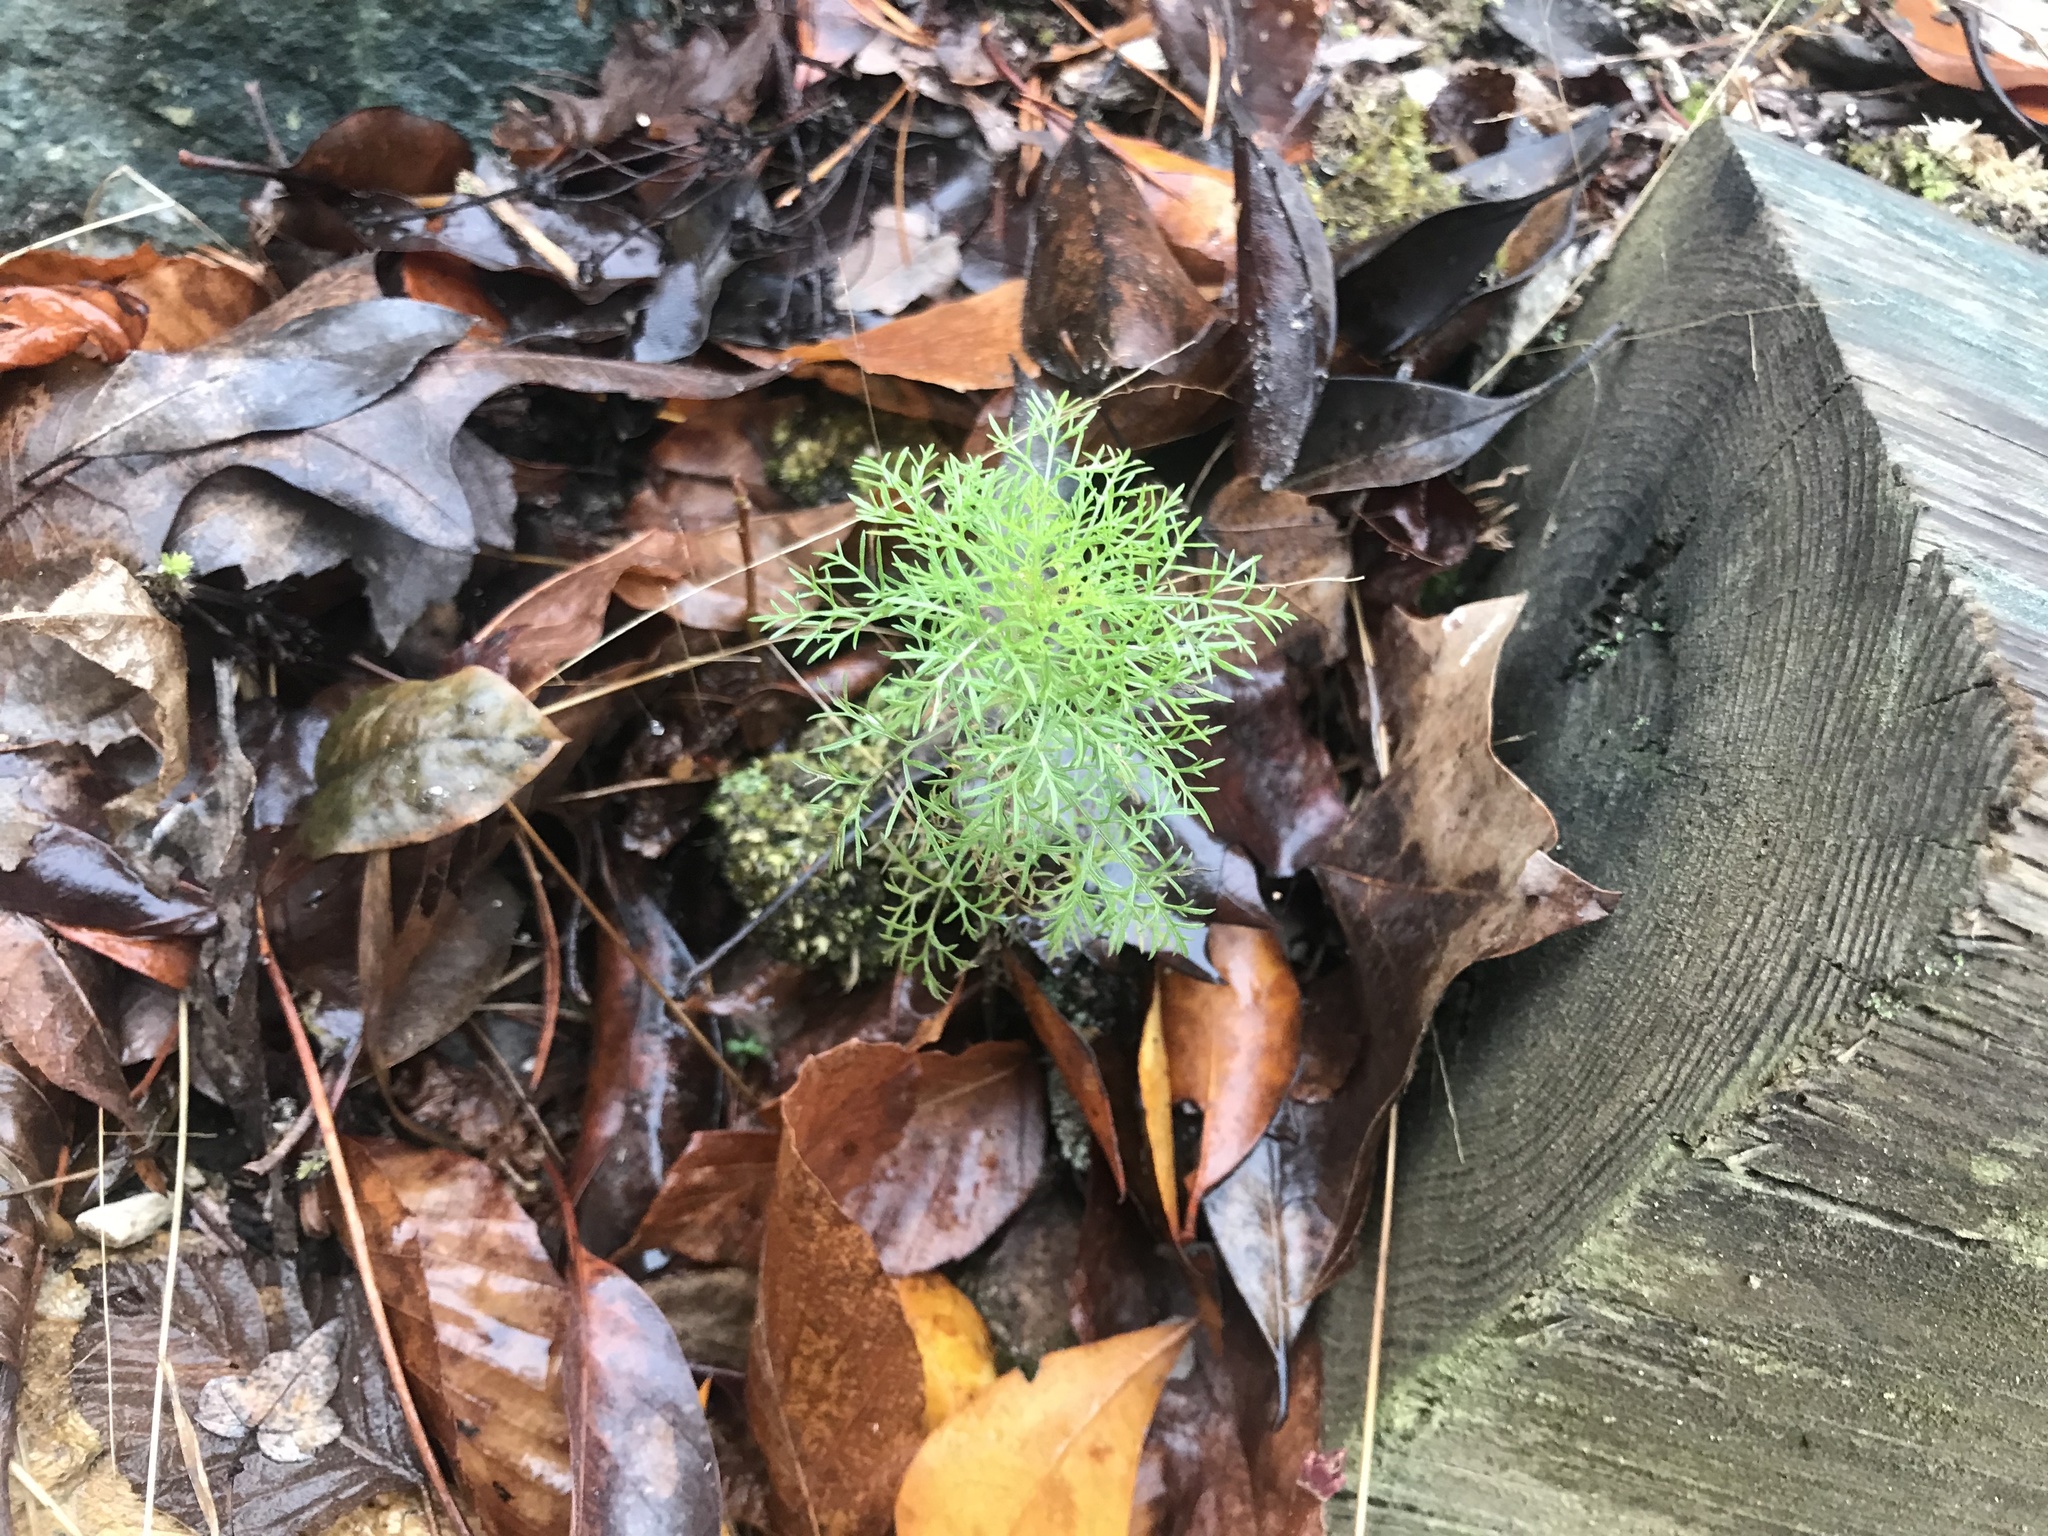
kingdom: Plantae
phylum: Tracheophyta
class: Magnoliopsida
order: Asterales
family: Asteraceae
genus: Eupatorium
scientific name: Eupatorium capillifolium
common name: Dog-fennel
